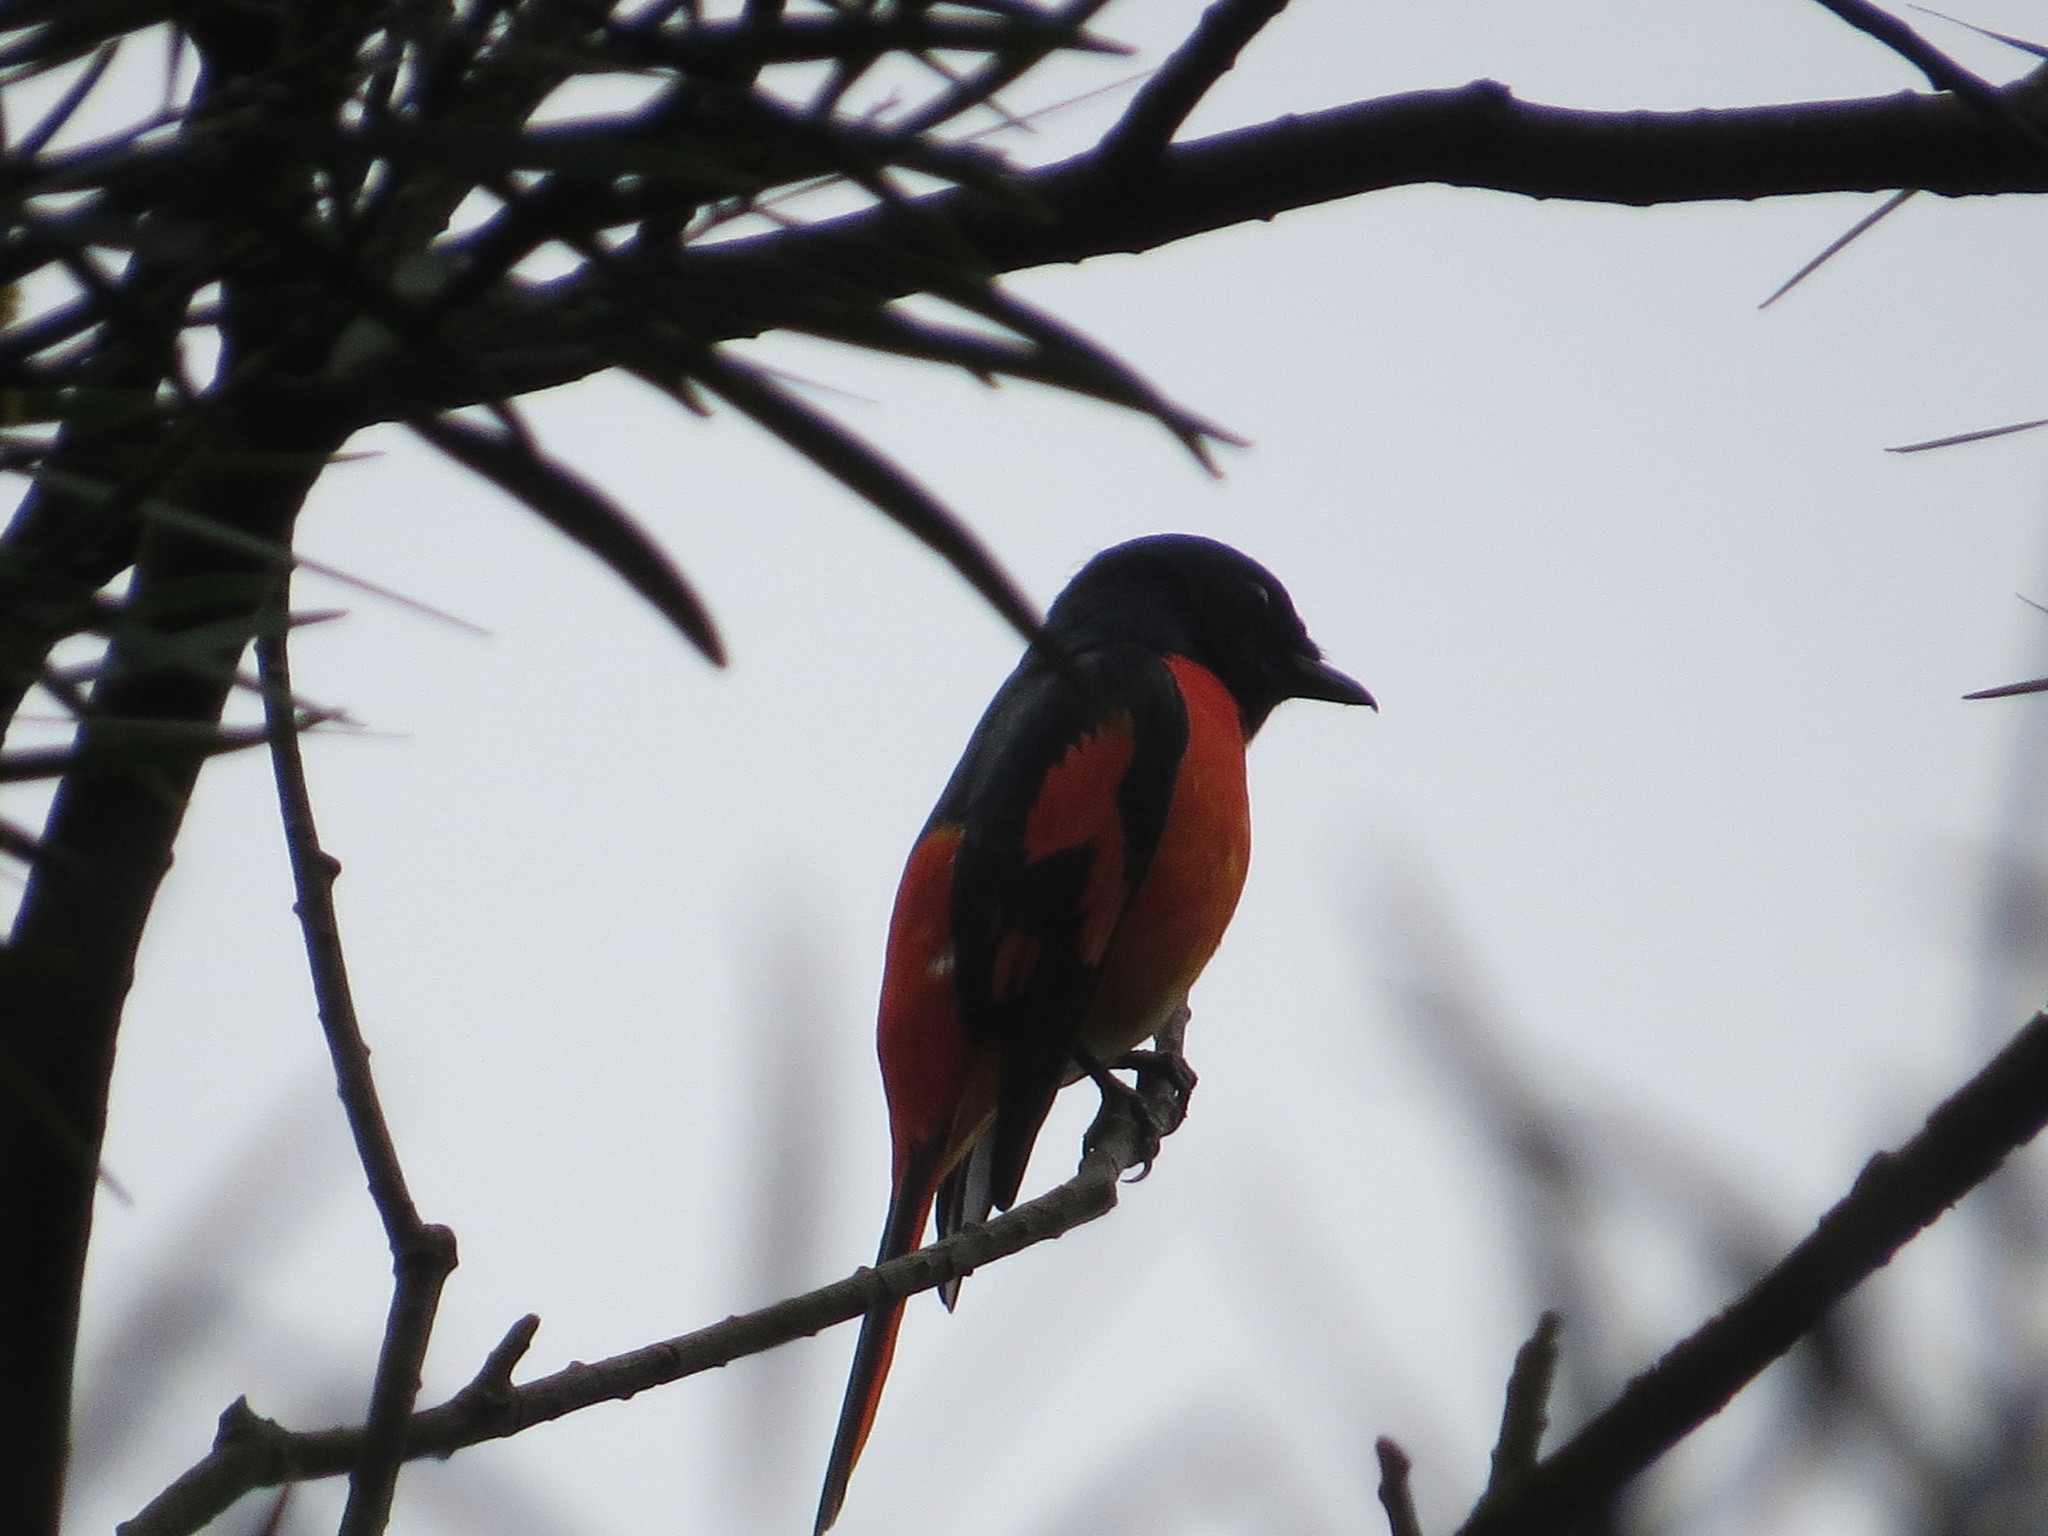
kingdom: Animalia
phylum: Chordata
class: Aves
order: Passeriformes
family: Campephagidae
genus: Pericrocotus
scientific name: Pericrocotus speciosus
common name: Scarlet minivet
